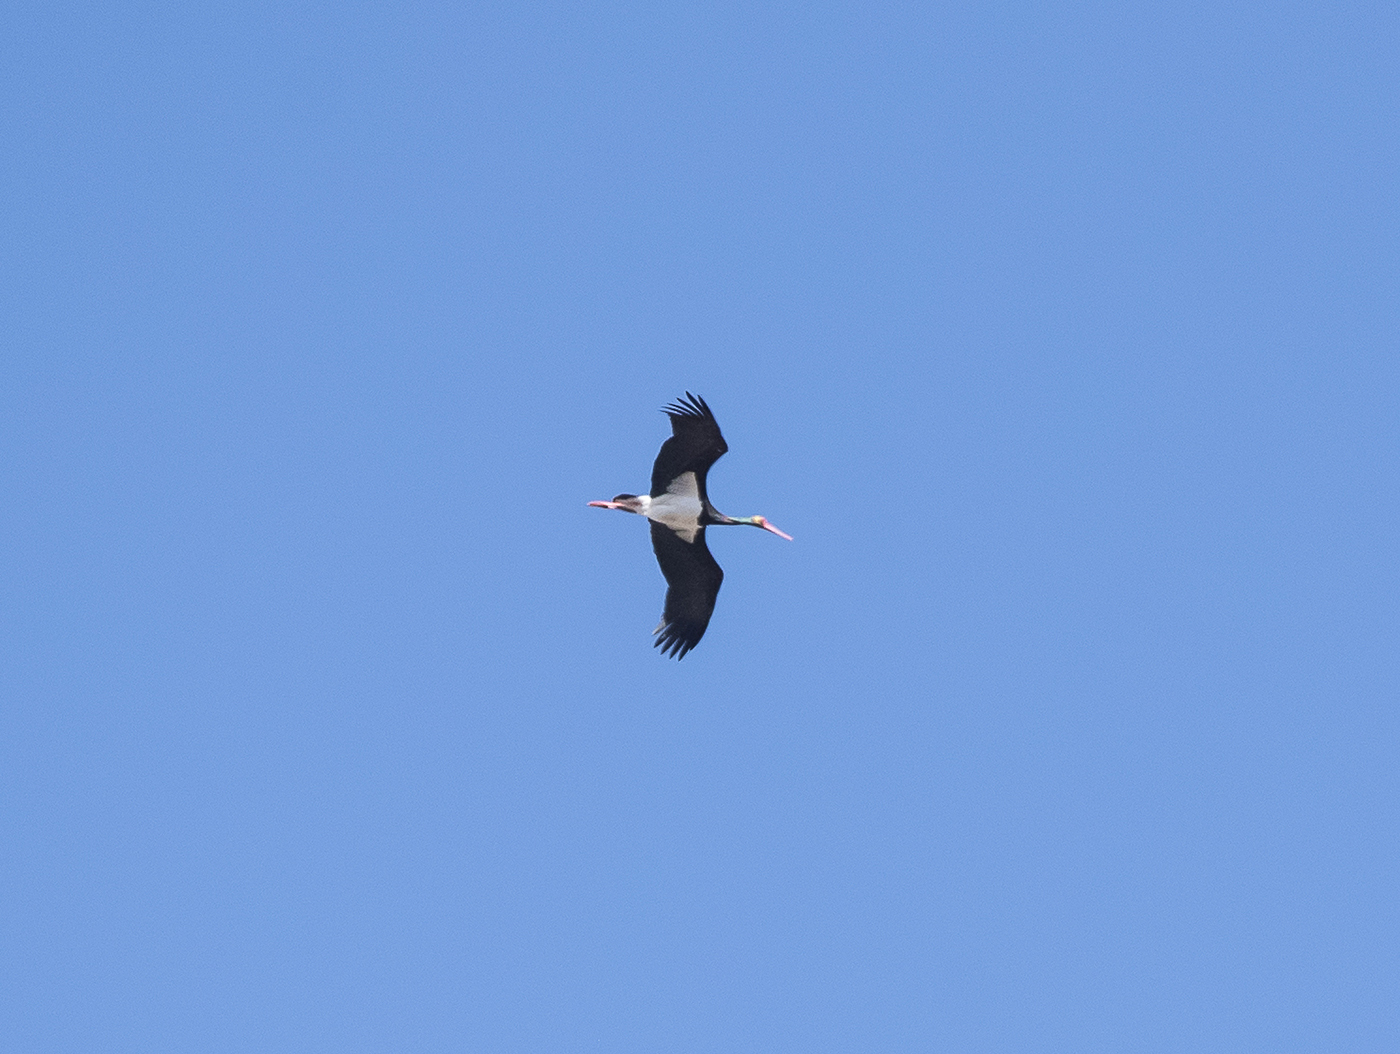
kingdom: Animalia
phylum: Chordata
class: Aves
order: Ciconiiformes
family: Ciconiidae
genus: Ciconia
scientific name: Ciconia nigra
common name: Black stork
